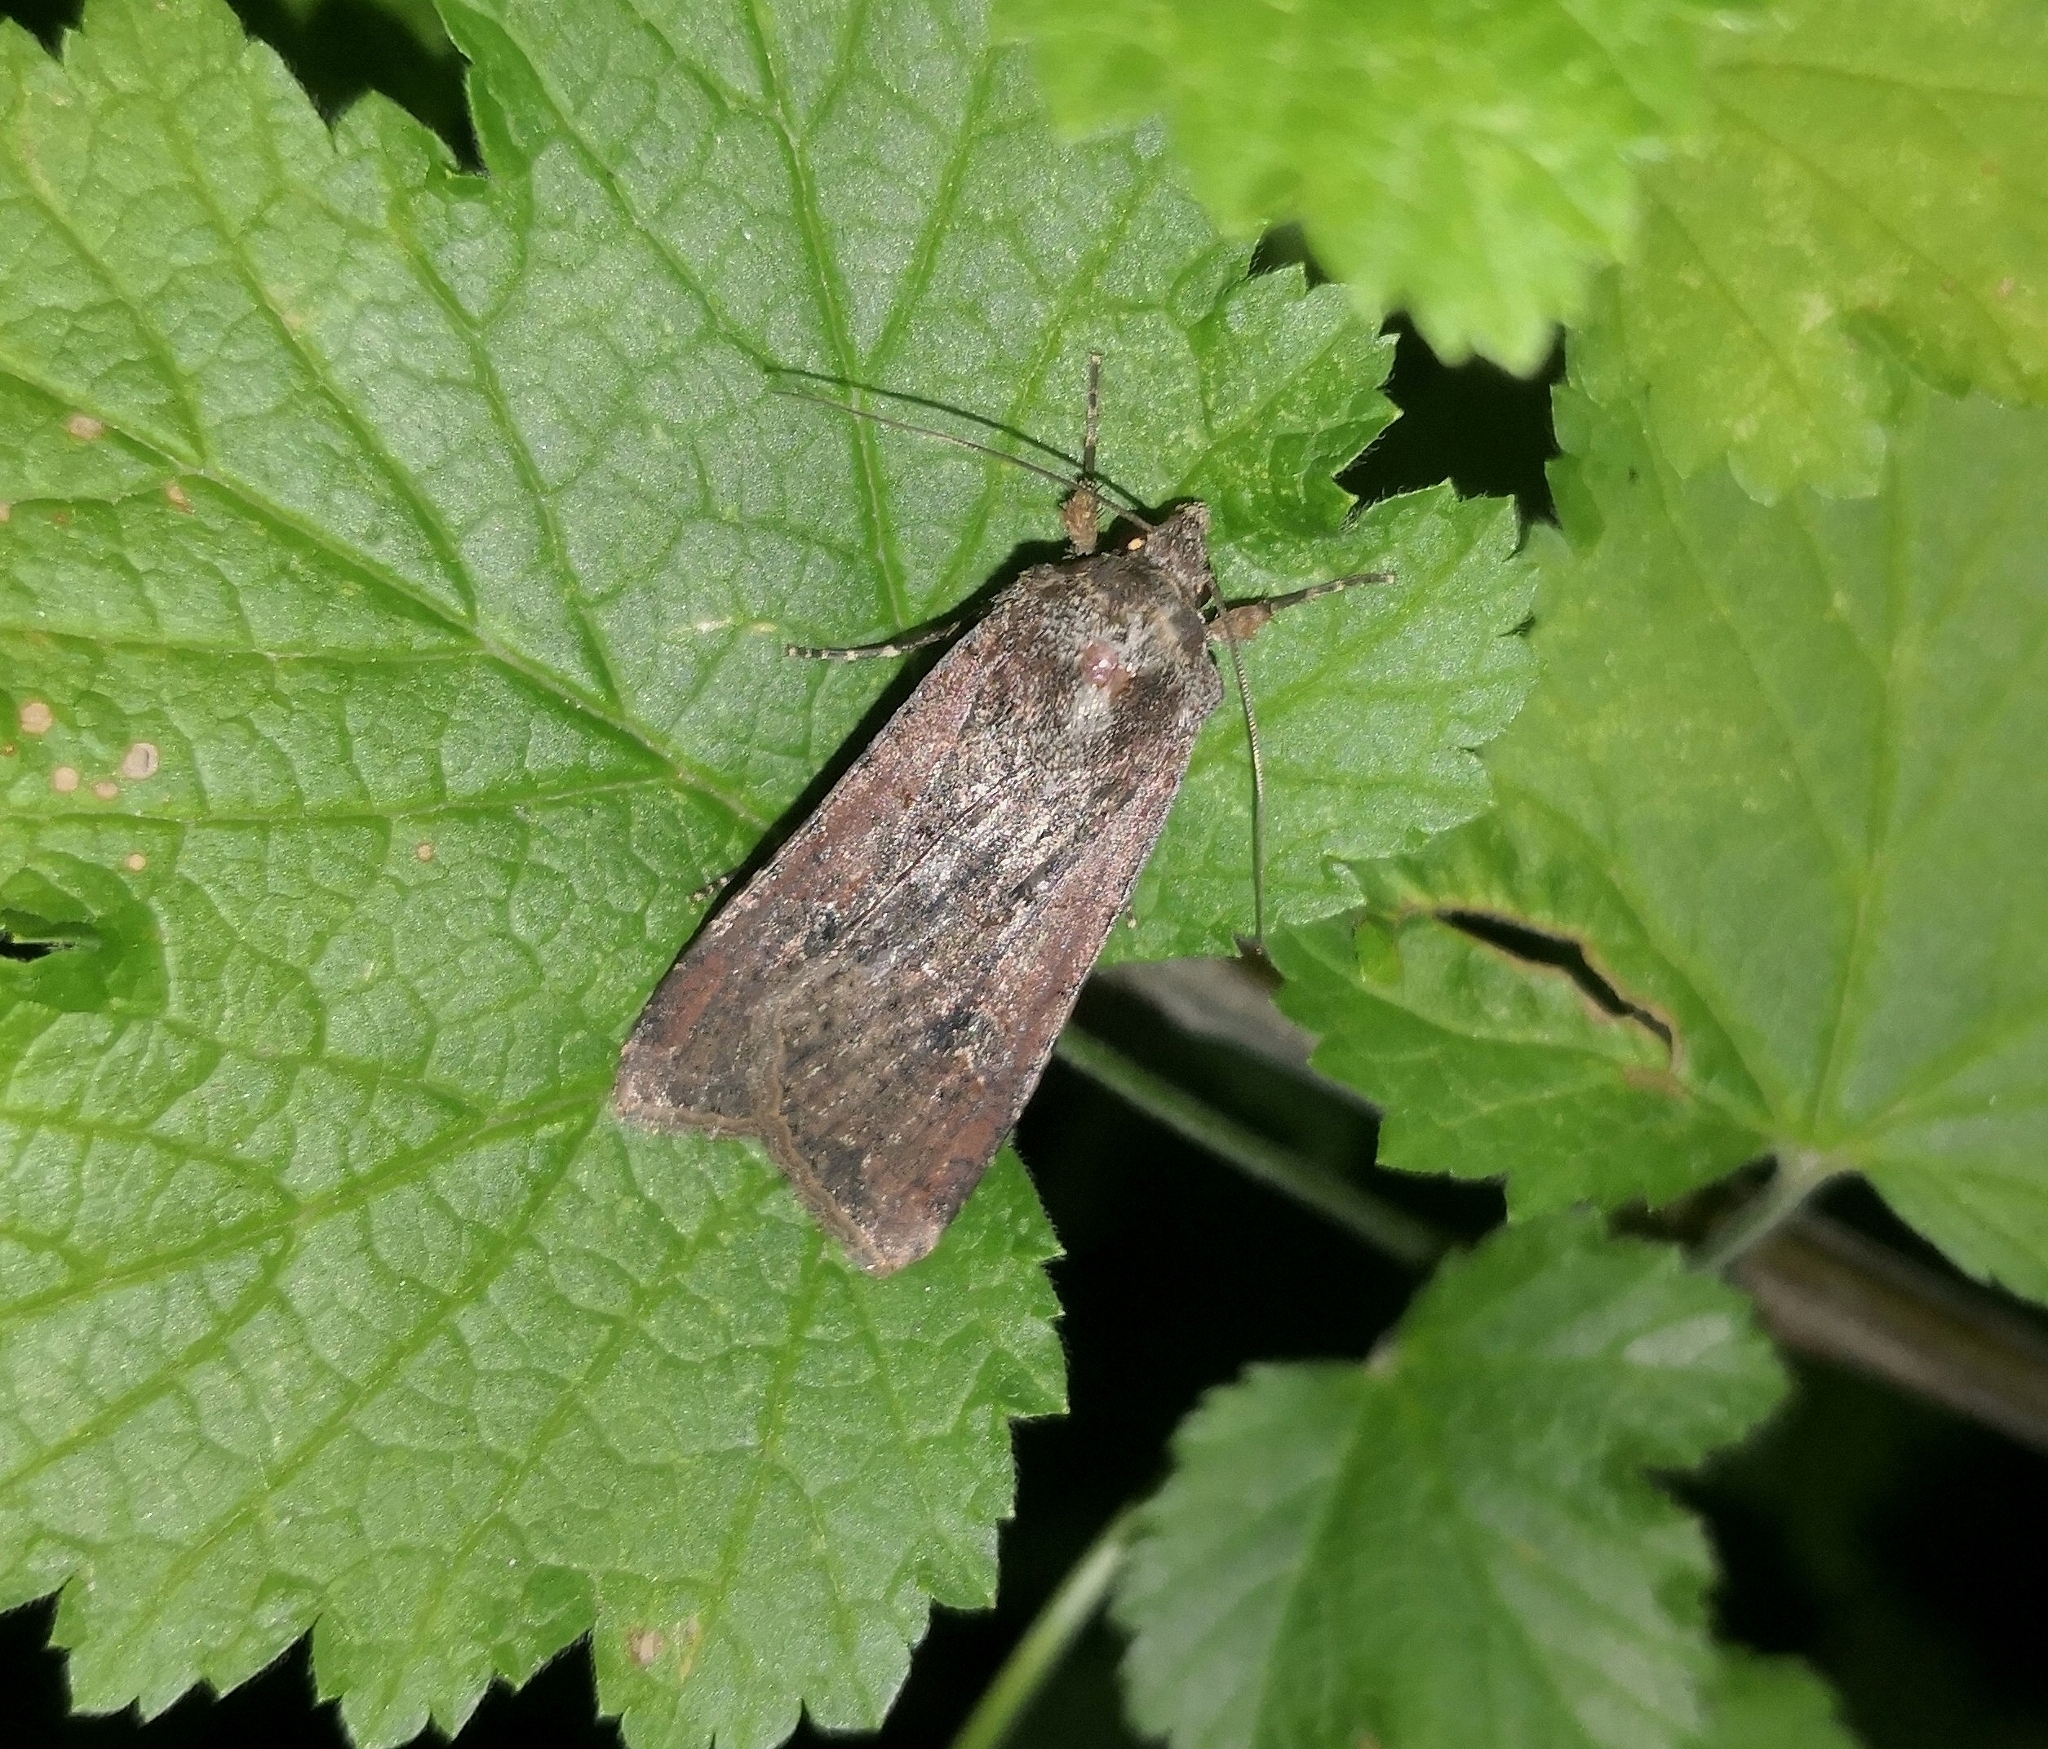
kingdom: Animalia
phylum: Arthropoda
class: Insecta
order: Lepidoptera
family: Noctuidae
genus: Peridroma
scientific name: Peridroma saucia
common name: Pearly underwing
